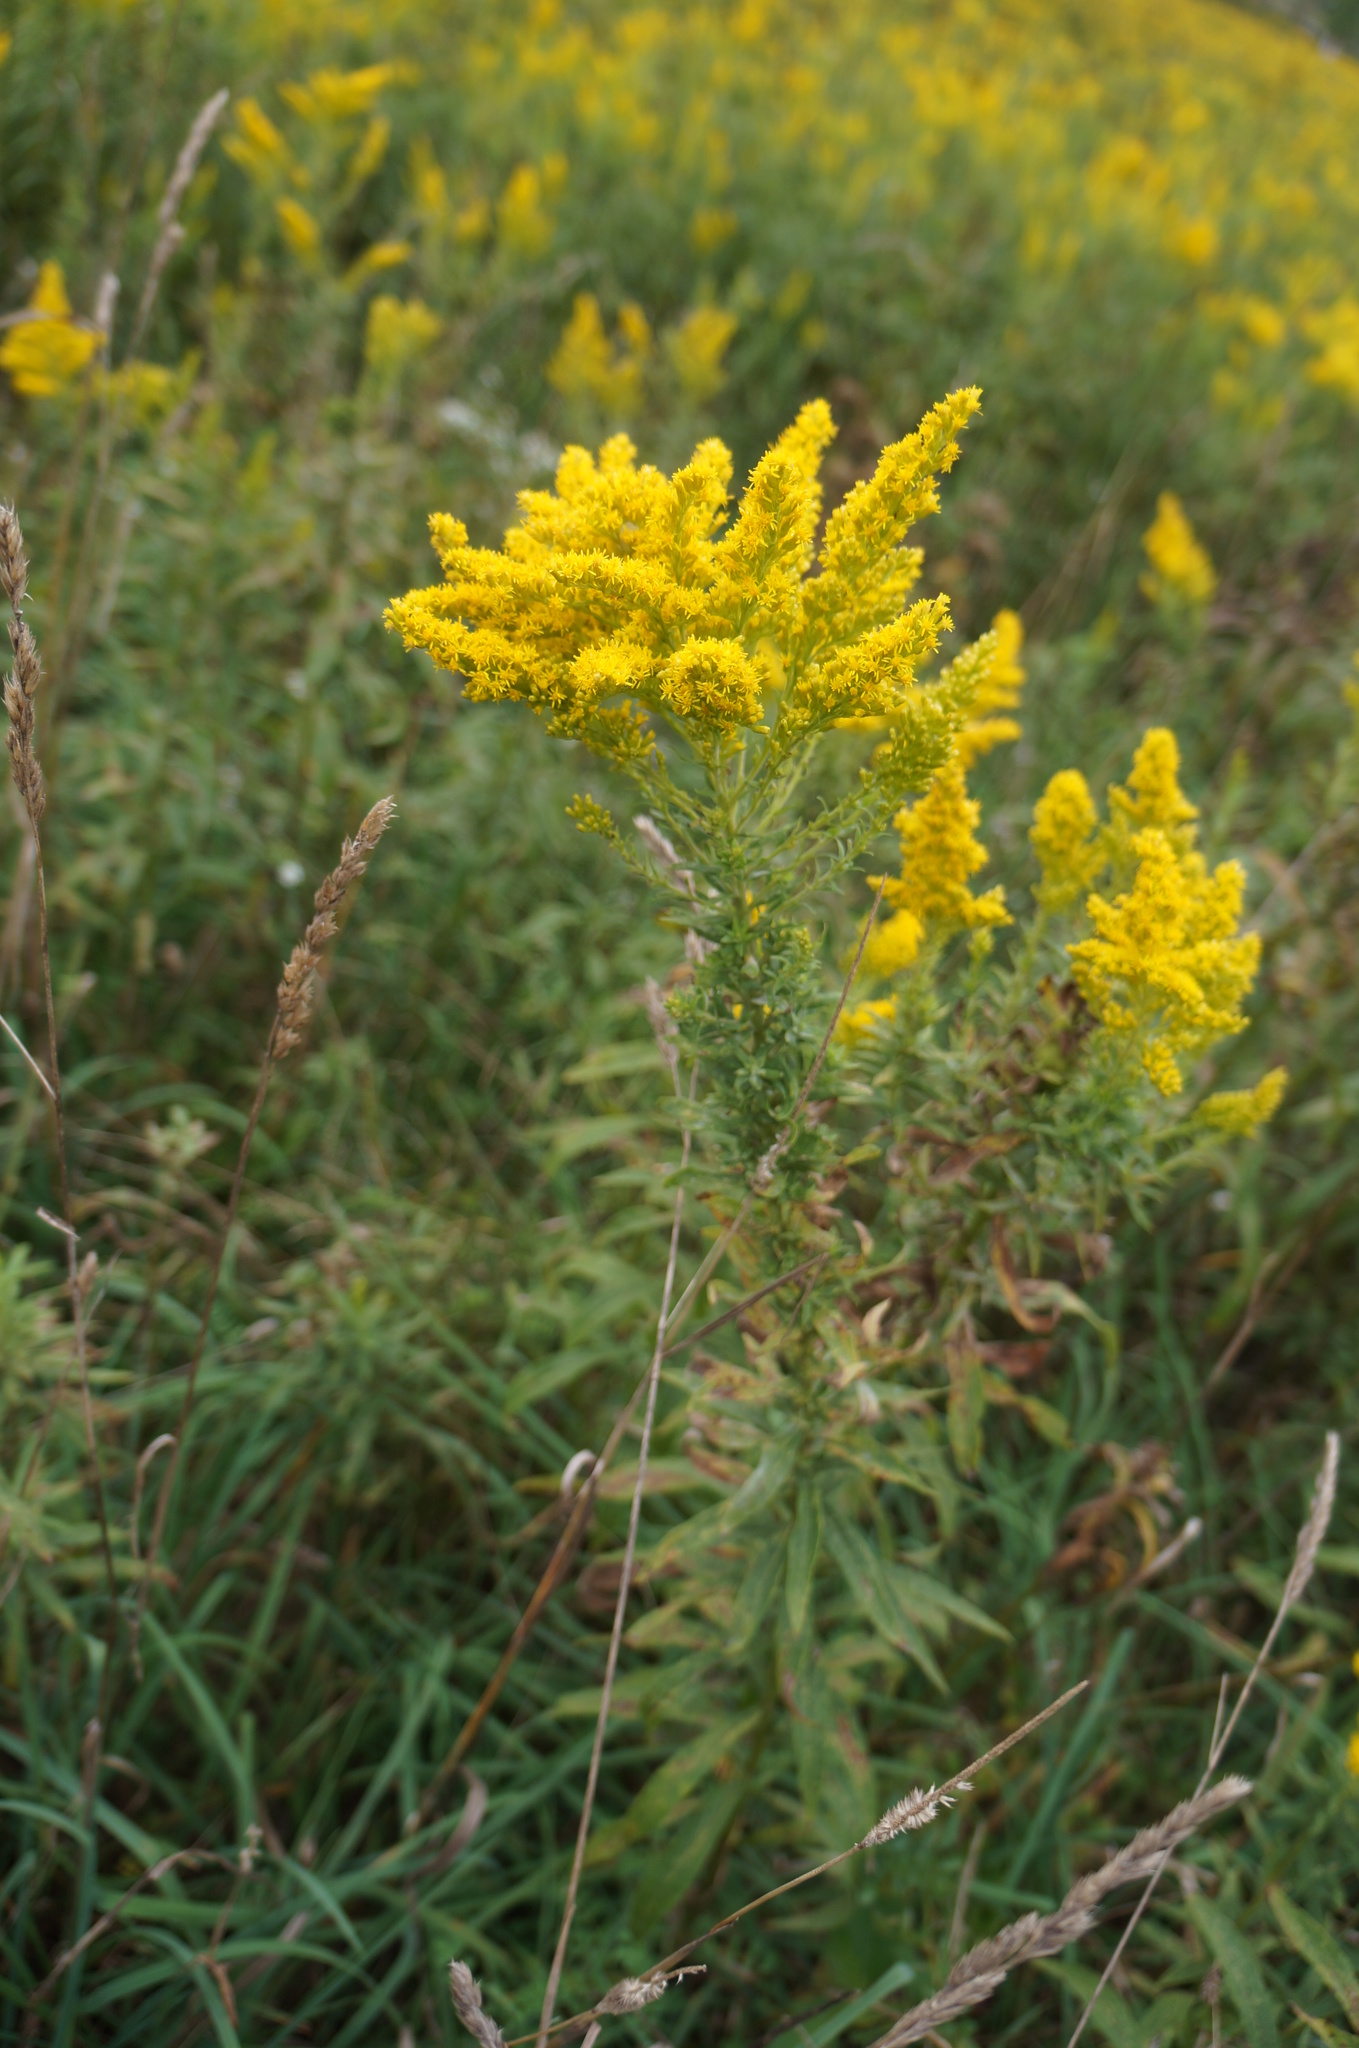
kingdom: Plantae
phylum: Tracheophyta
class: Magnoliopsida
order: Asterales
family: Asteraceae
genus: Solidago
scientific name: Solidago altissima
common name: Late goldenrod
